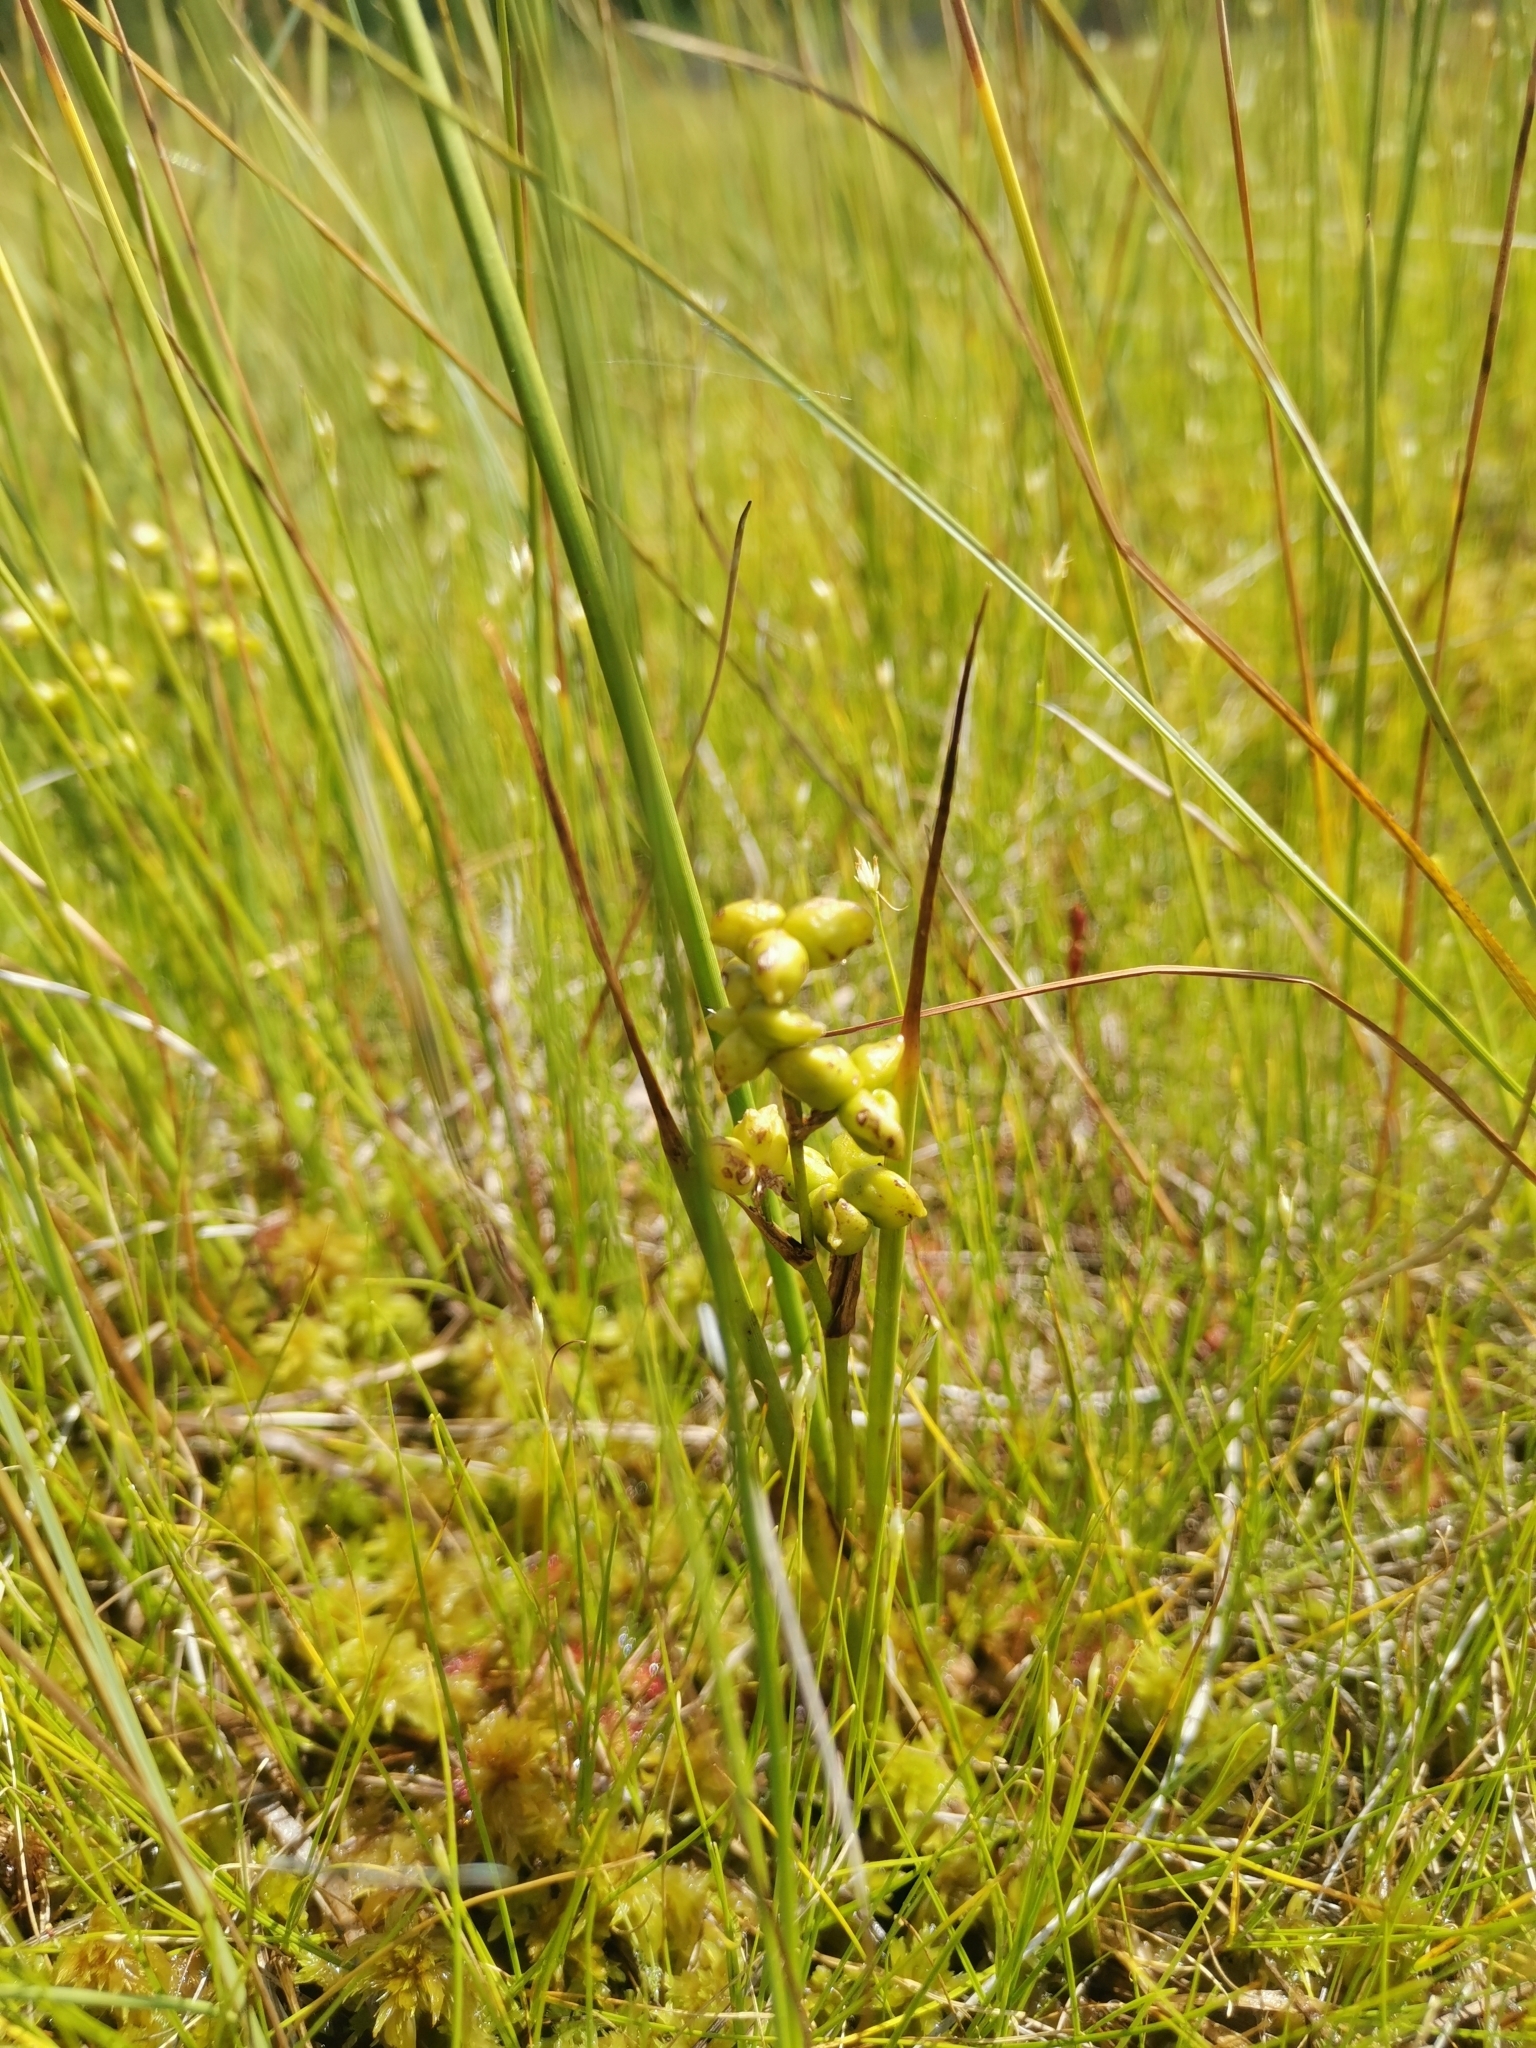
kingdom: Plantae
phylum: Tracheophyta
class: Liliopsida
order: Alismatales
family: Scheuchzeriaceae
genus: Scheuchzeria
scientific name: Scheuchzeria palustris
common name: Rannoch-rush
